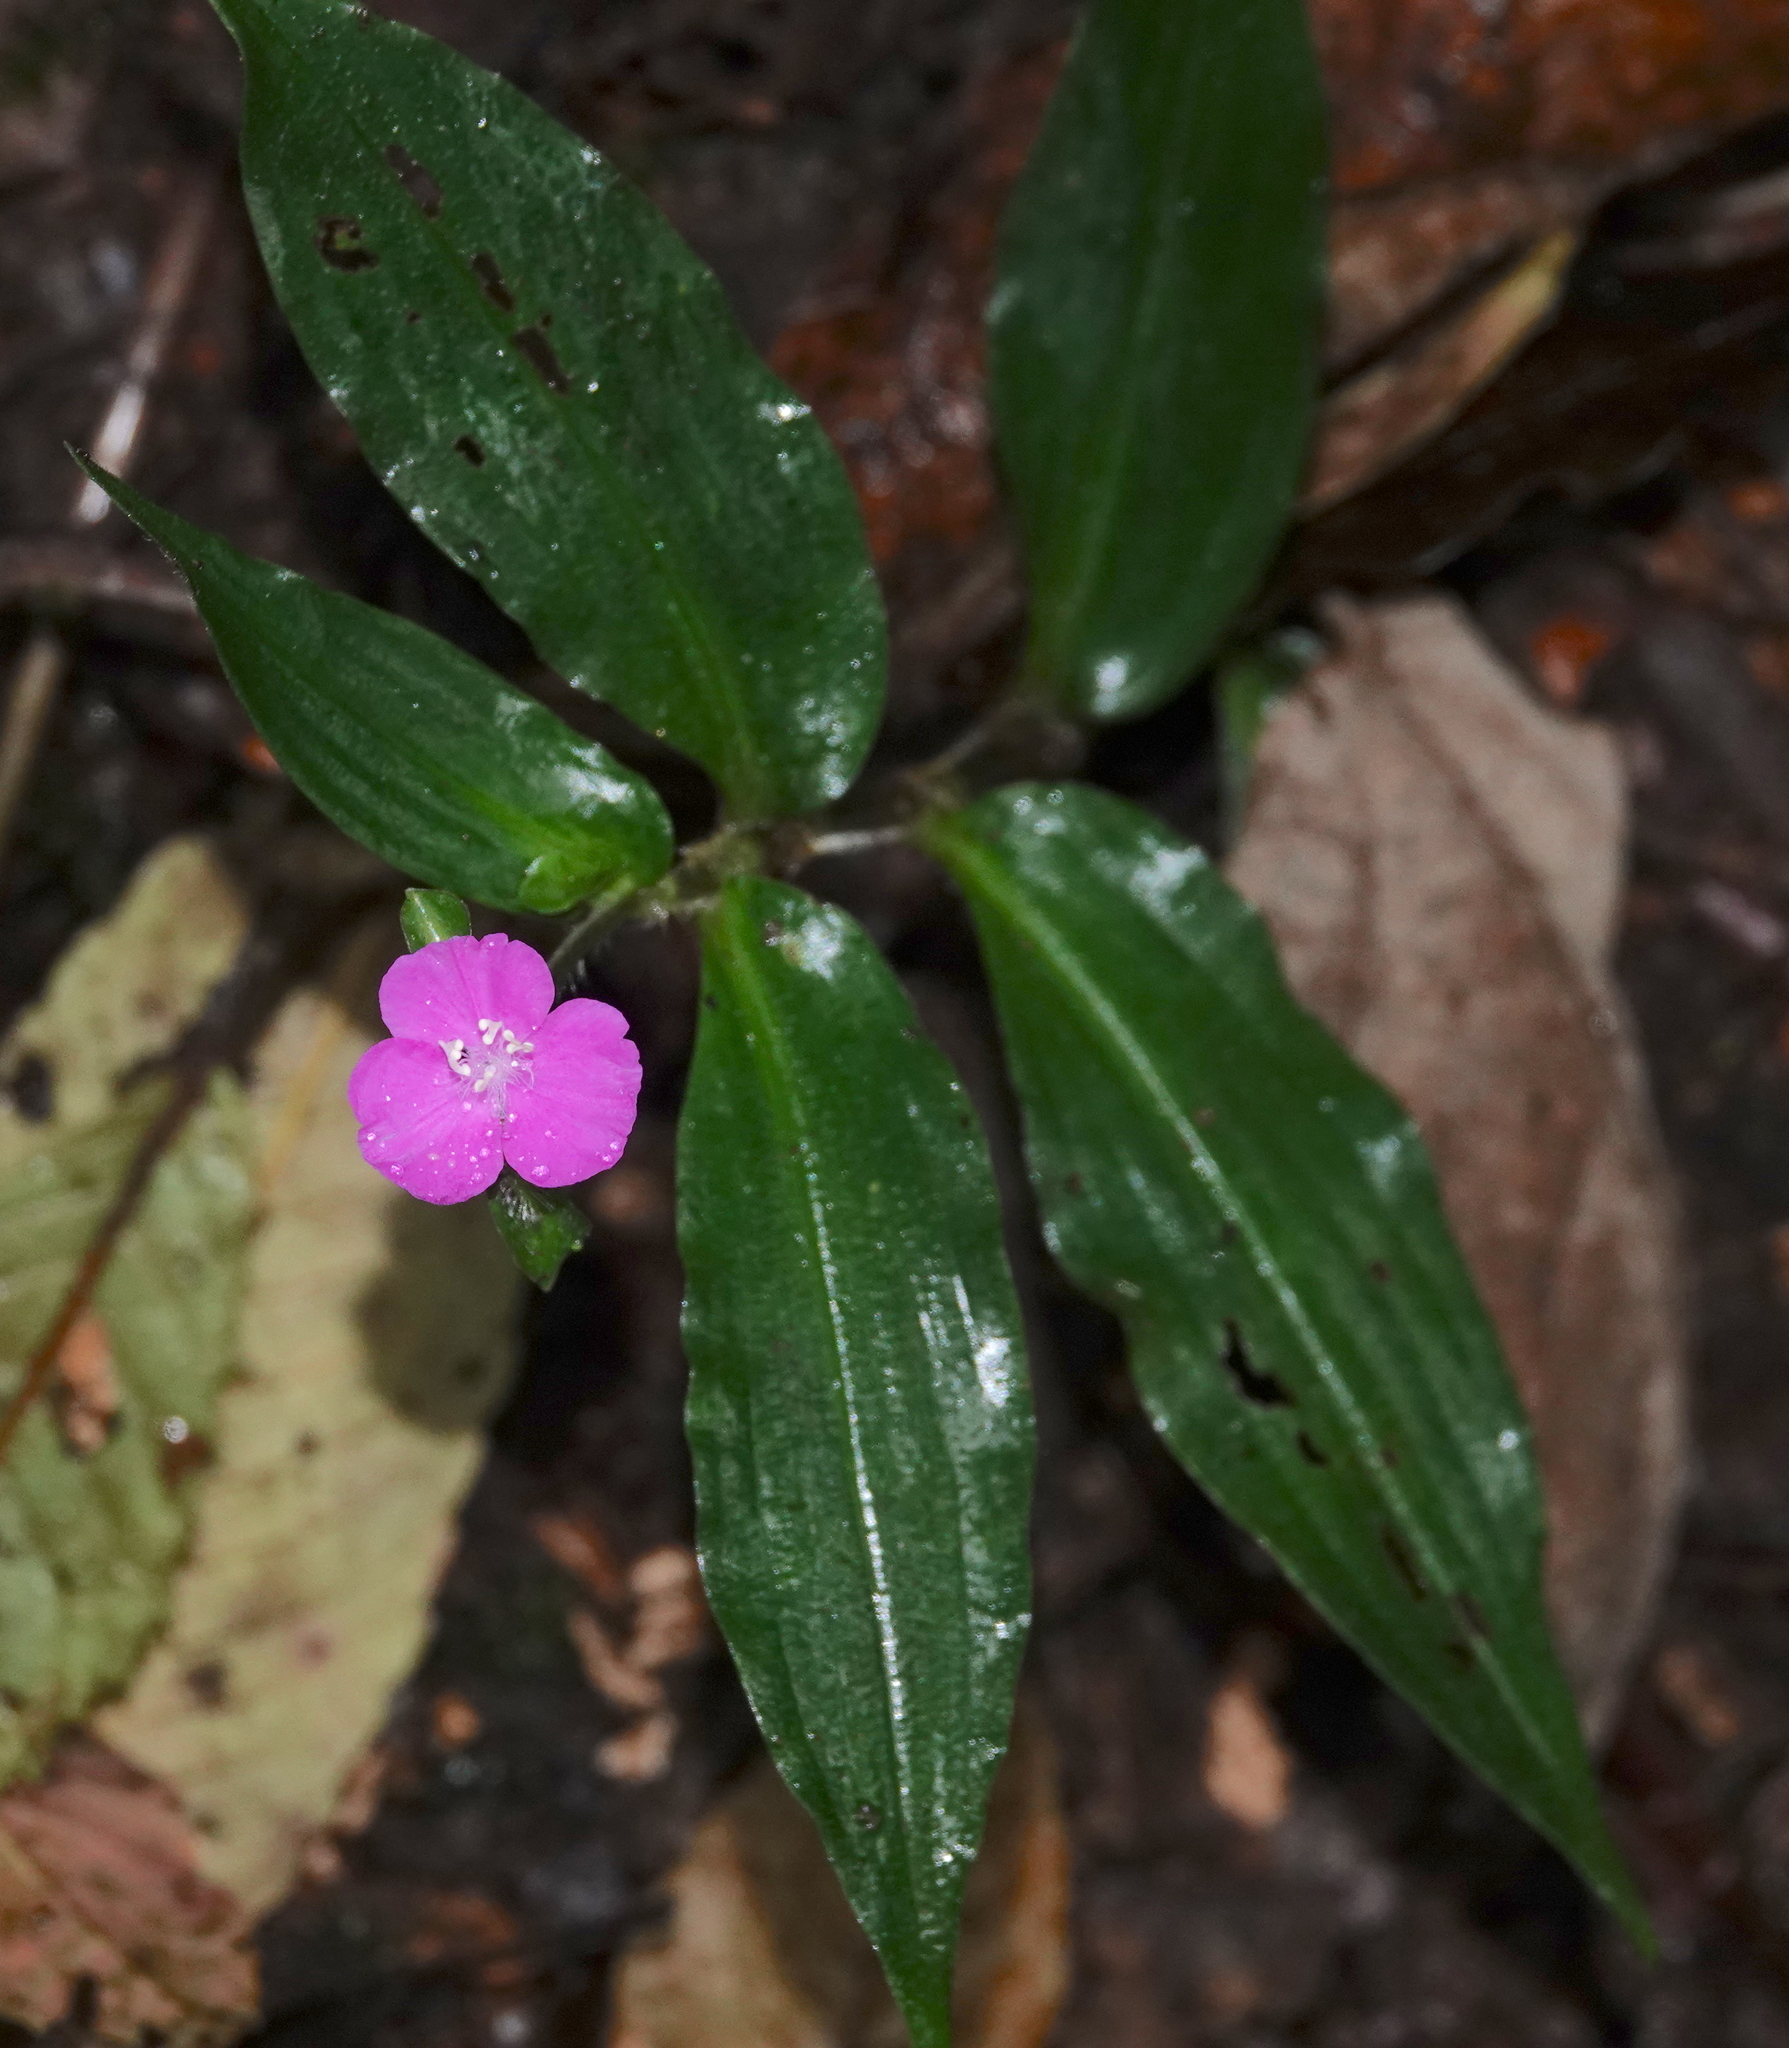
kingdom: Plantae
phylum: Tracheophyta
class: Liliopsida
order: Commelinales
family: Commelinaceae
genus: Tradescantia
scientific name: Tradescantia poelliae
